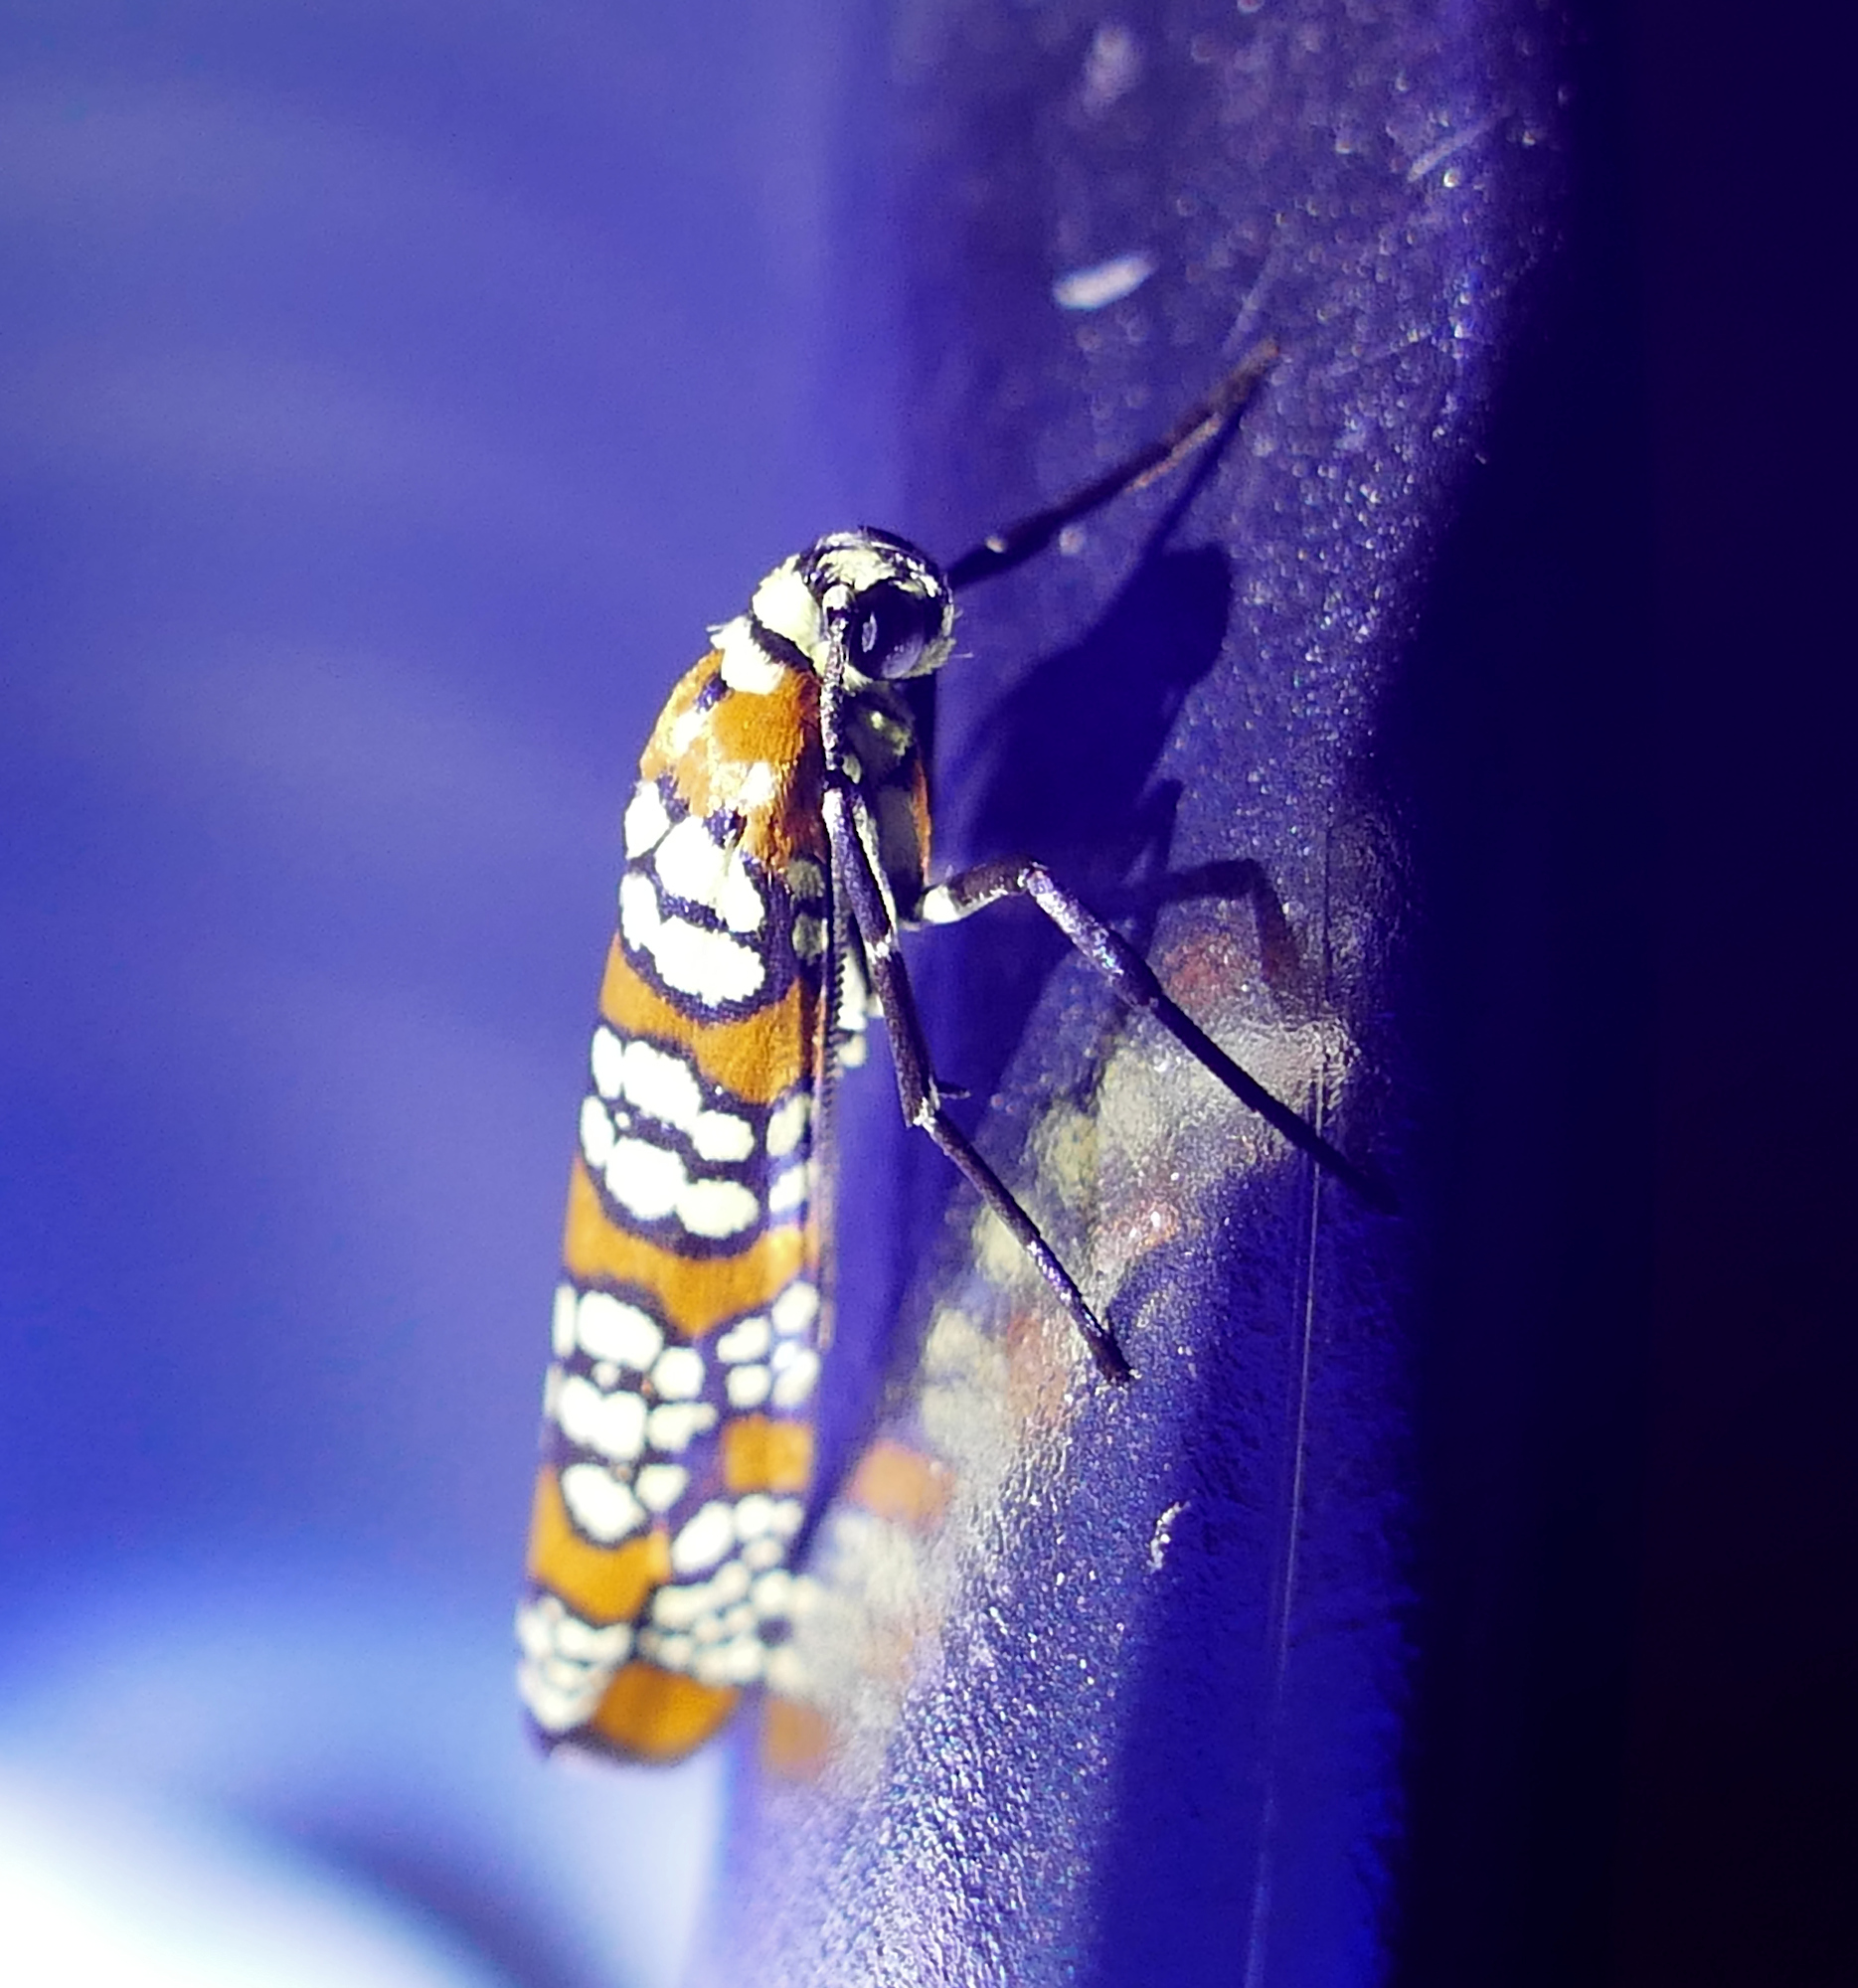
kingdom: Animalia
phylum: Arthropoda
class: Insecta
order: Lepidoptera
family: Attevidae
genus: Atteva
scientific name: Atteva punctella
